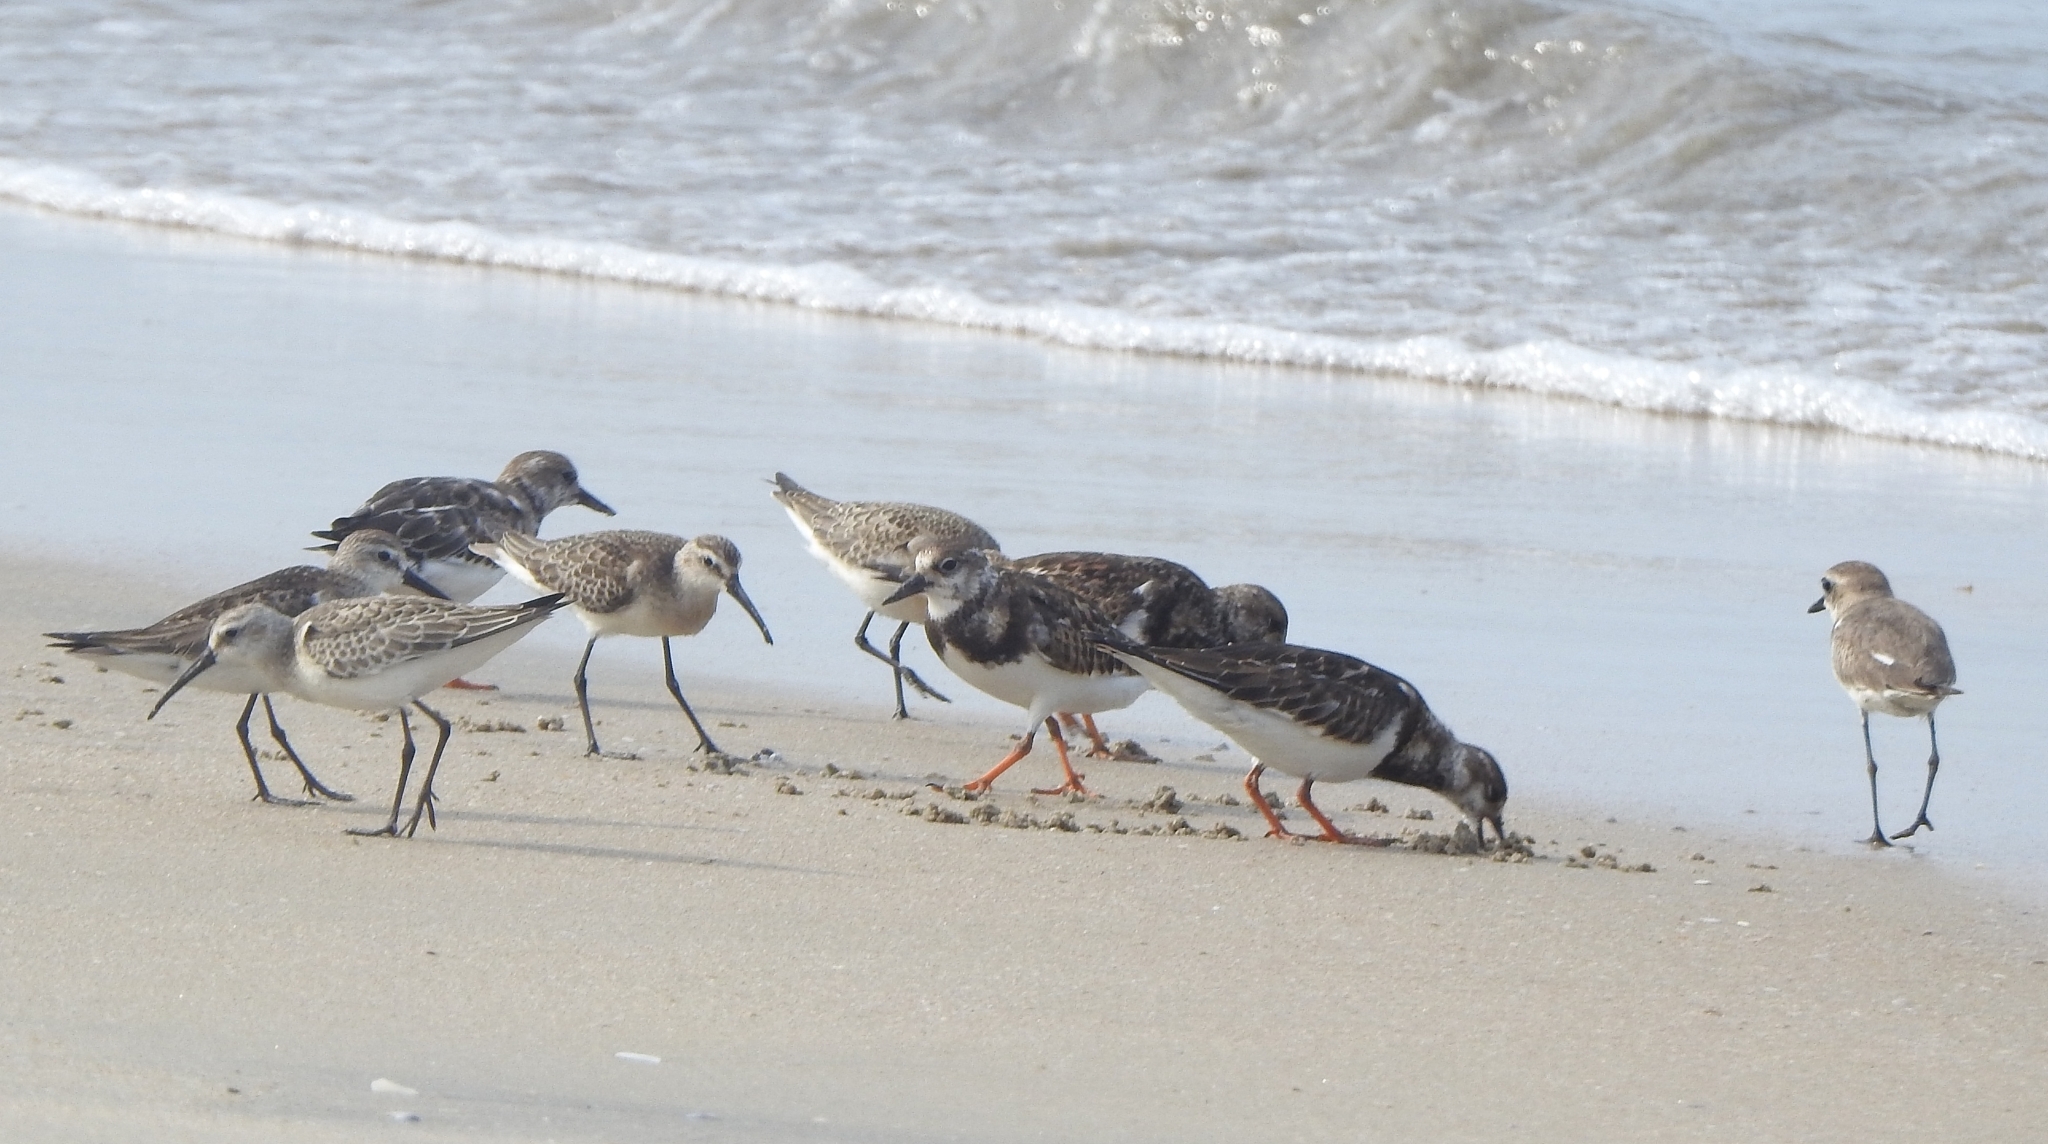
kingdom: Animalia
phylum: Chordata
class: Aves
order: Charadriiformes
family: Scolopacidae
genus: Calidris
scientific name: Calidris ferruginea
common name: Curlew sandpiper
